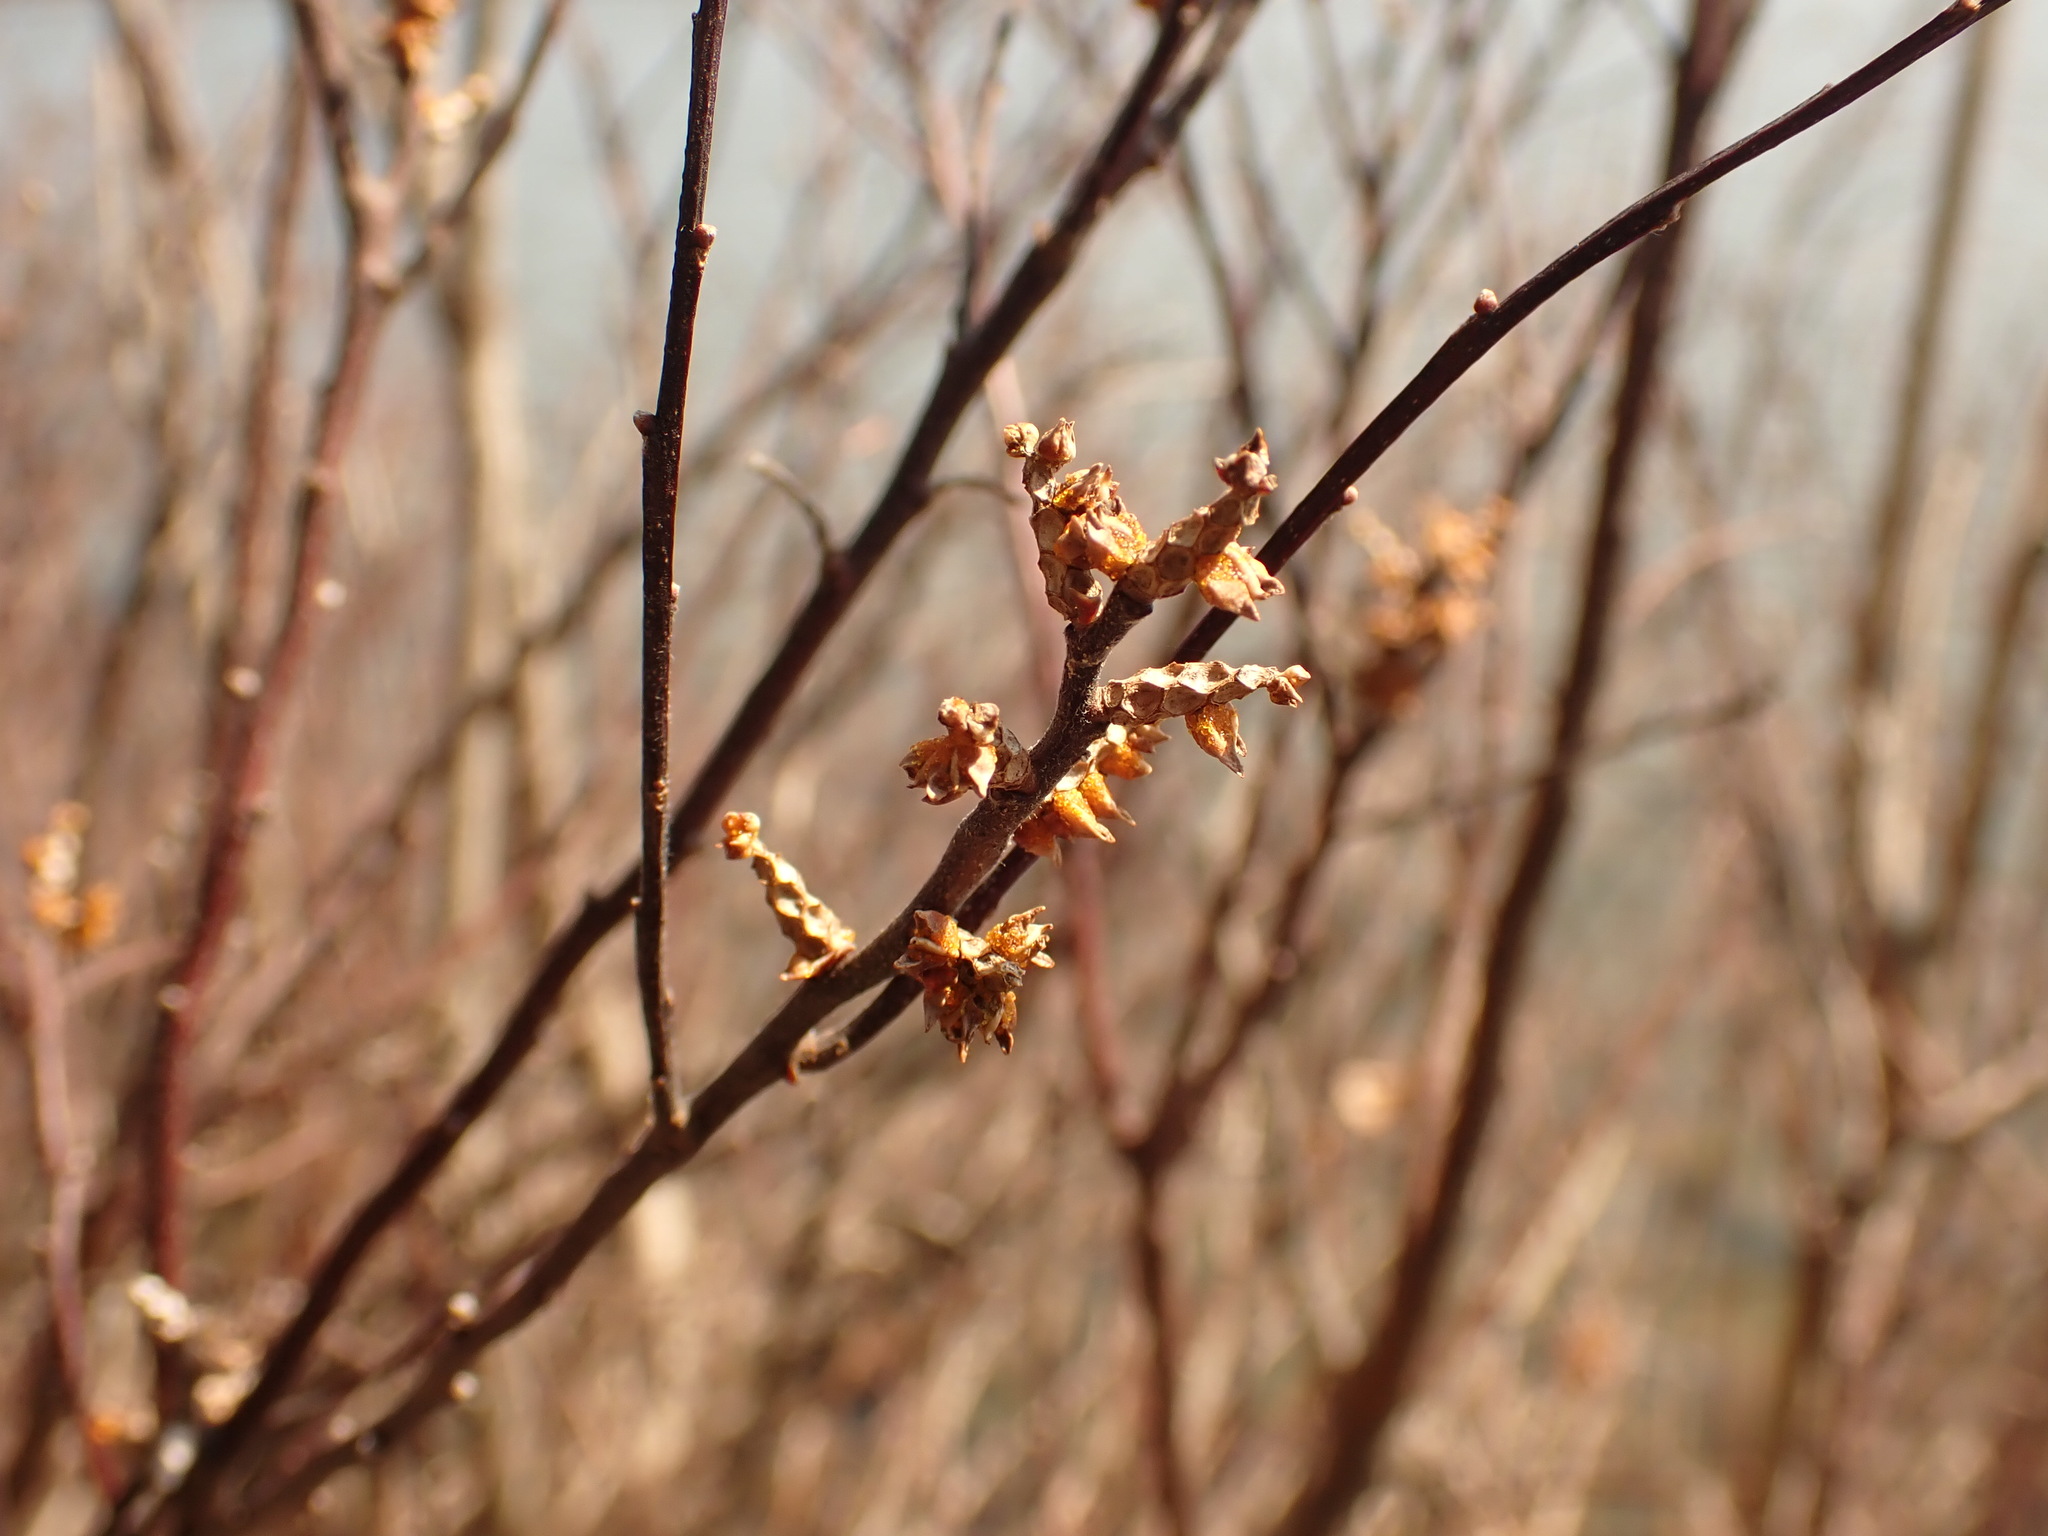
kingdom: Plantae
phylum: Tracheophyta
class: Magnoliopsida
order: Fagales
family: Myricaceae
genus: Myrica
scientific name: Myrica gale
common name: Sweet gale
